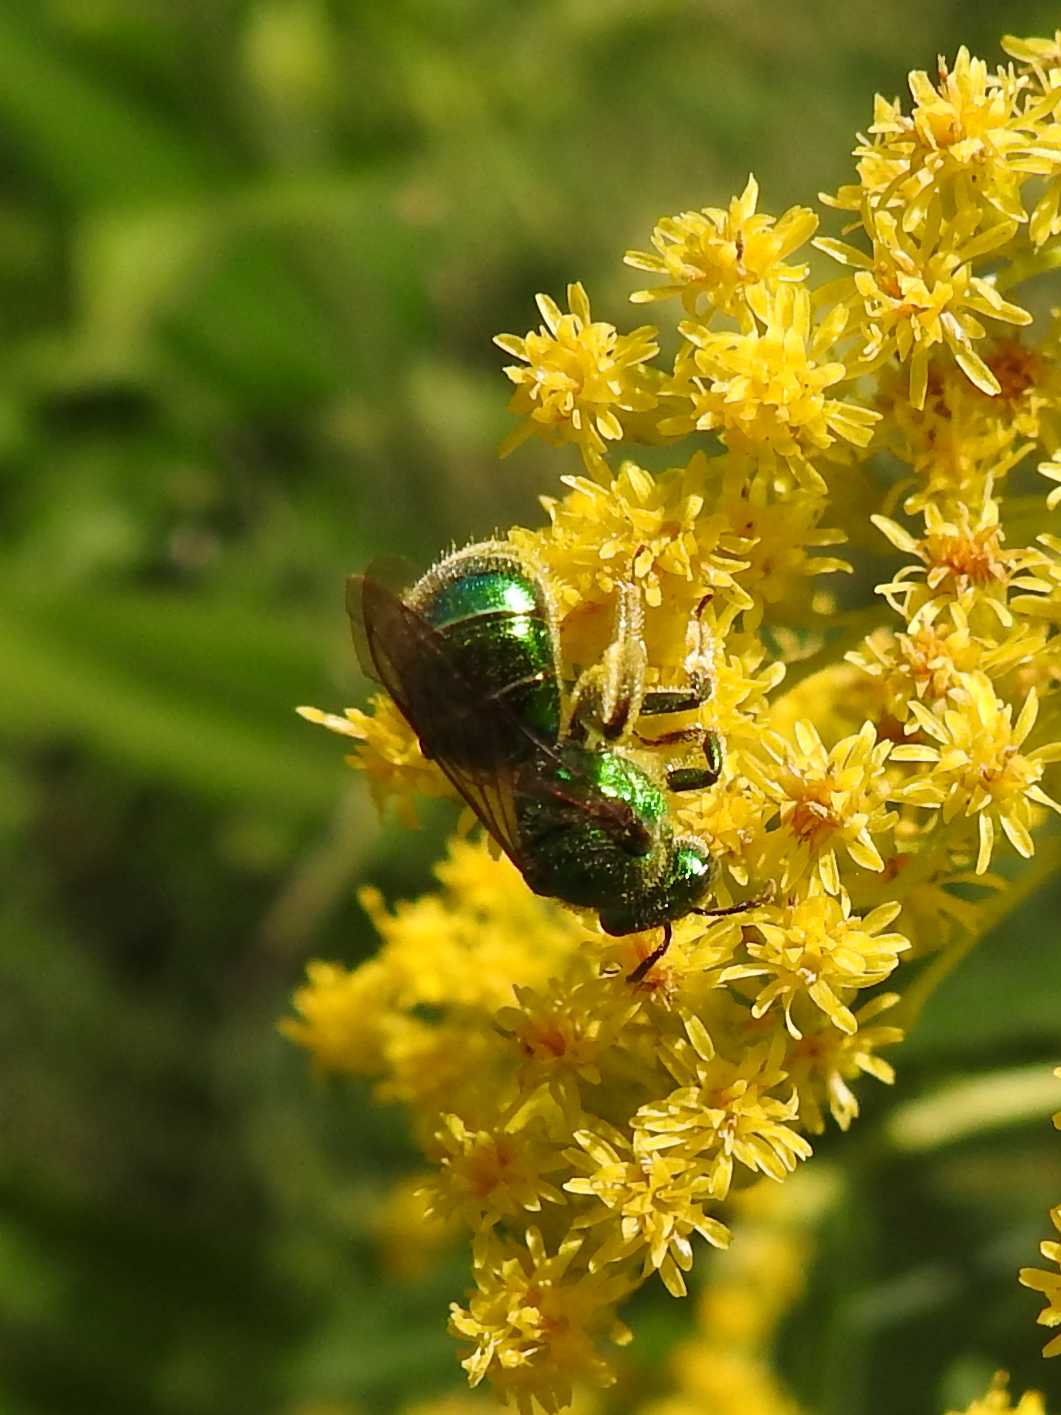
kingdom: Animalia
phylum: Arthropoda
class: Insecta
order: Hymenoptera
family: Halictidae
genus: Augochloropsis
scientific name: Augochloropsis viridula
